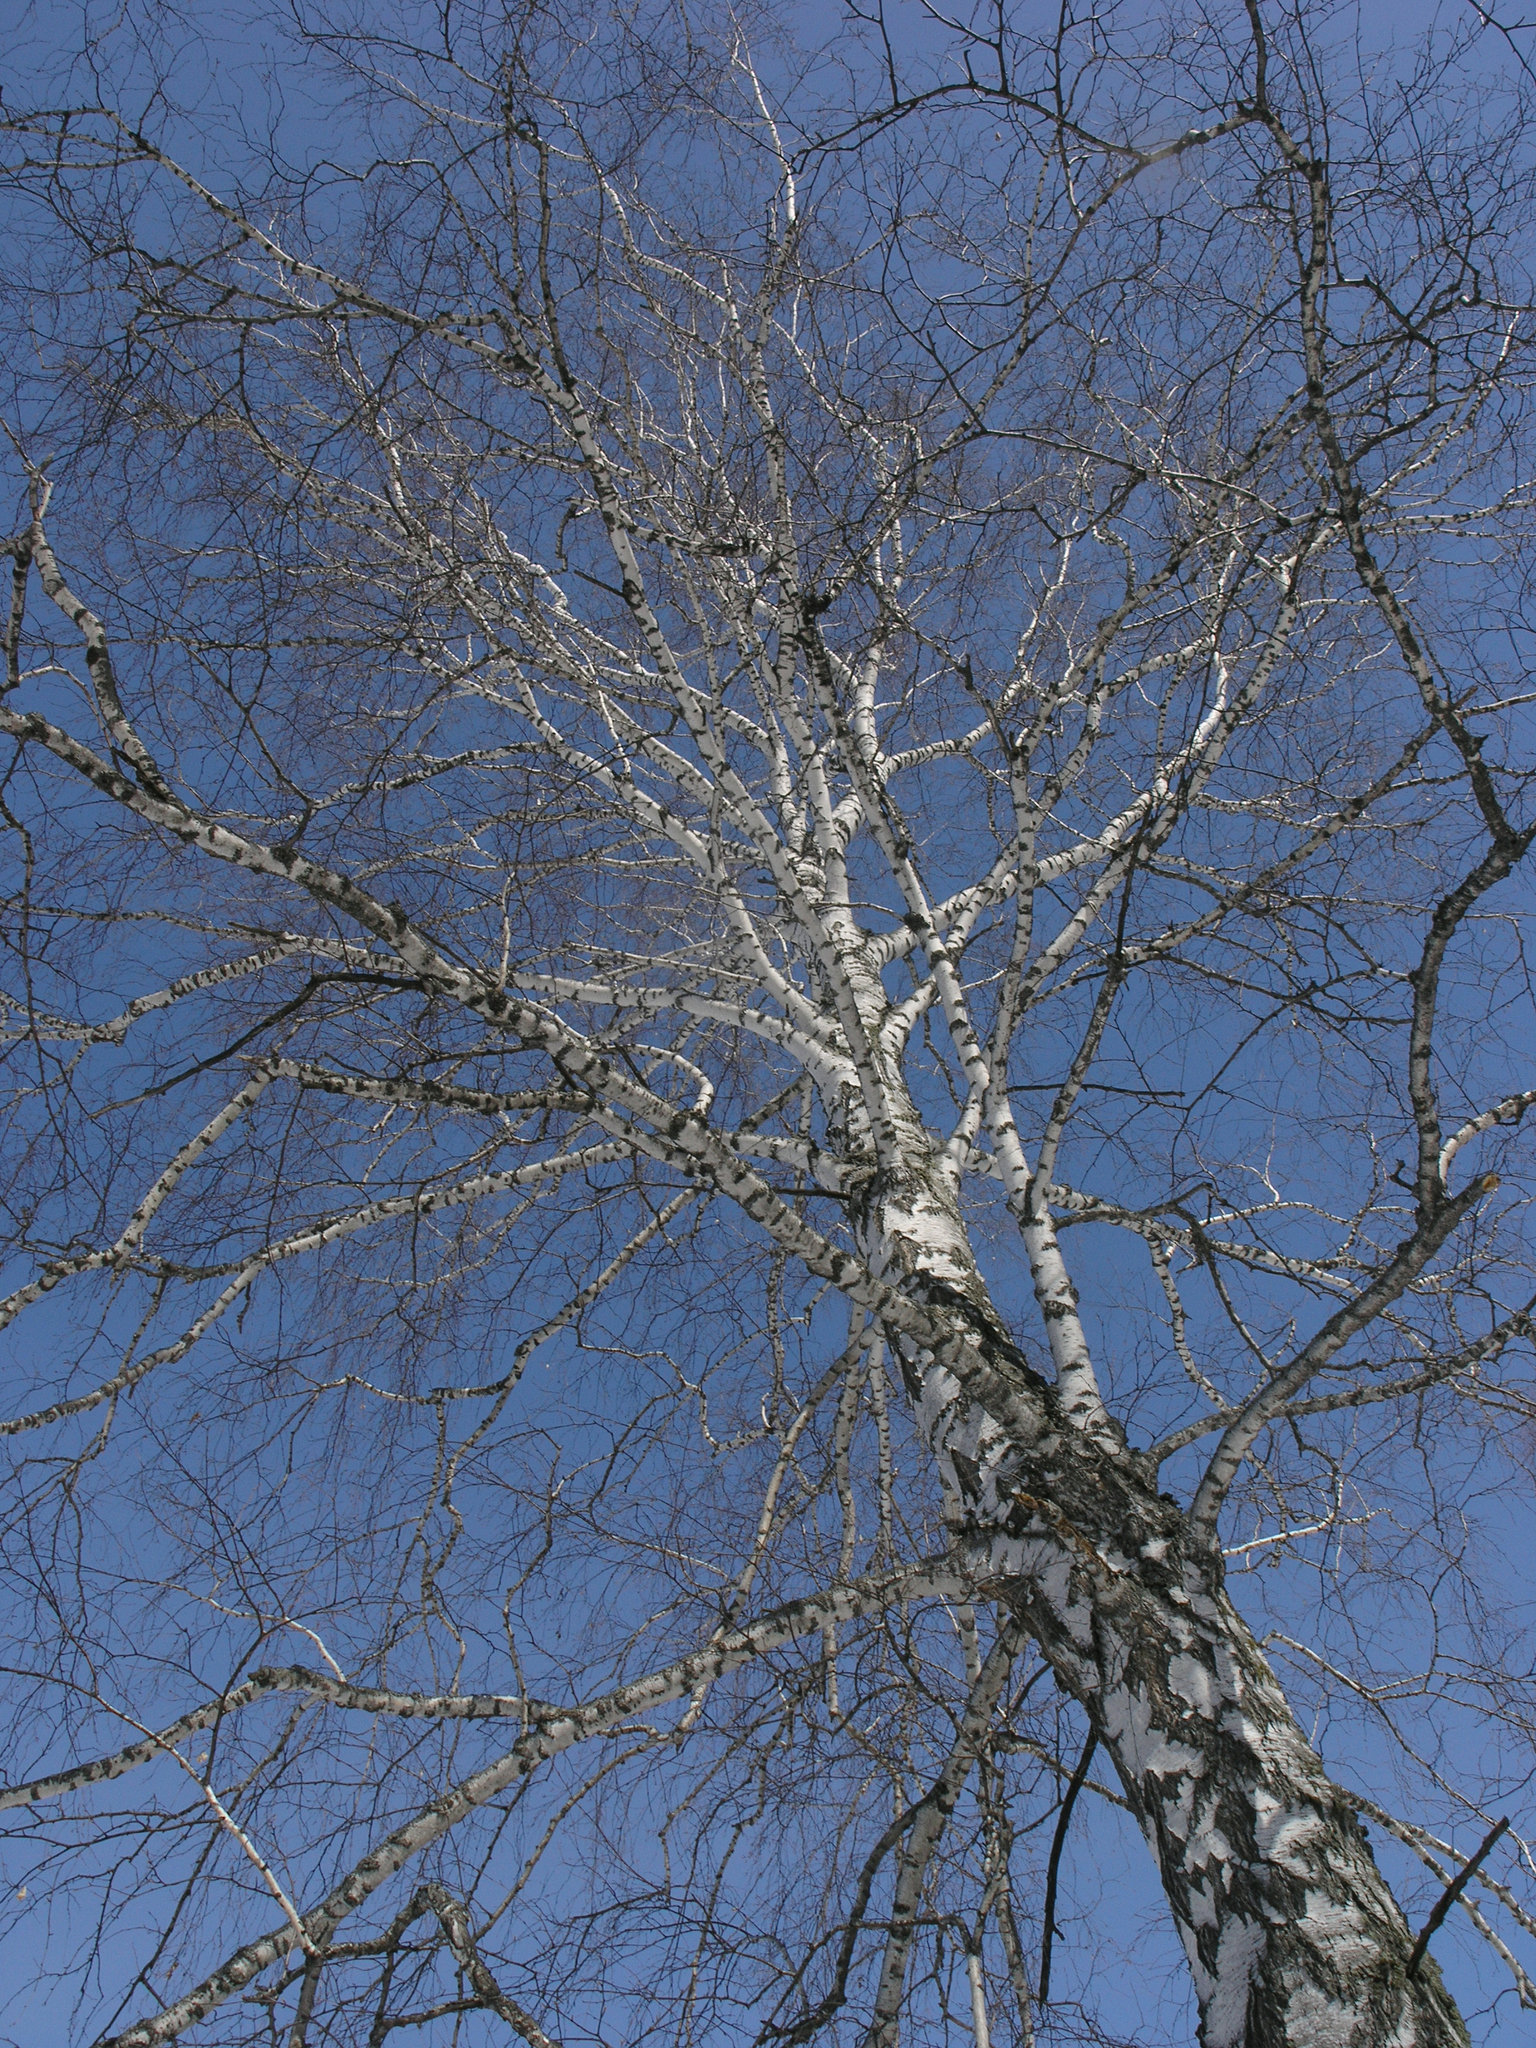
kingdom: Plantae
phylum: Tracheophyta
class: Magnoliopsida
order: Fagales
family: Betulaceae
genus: Betula
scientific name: Betula pendula
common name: Silver birch
